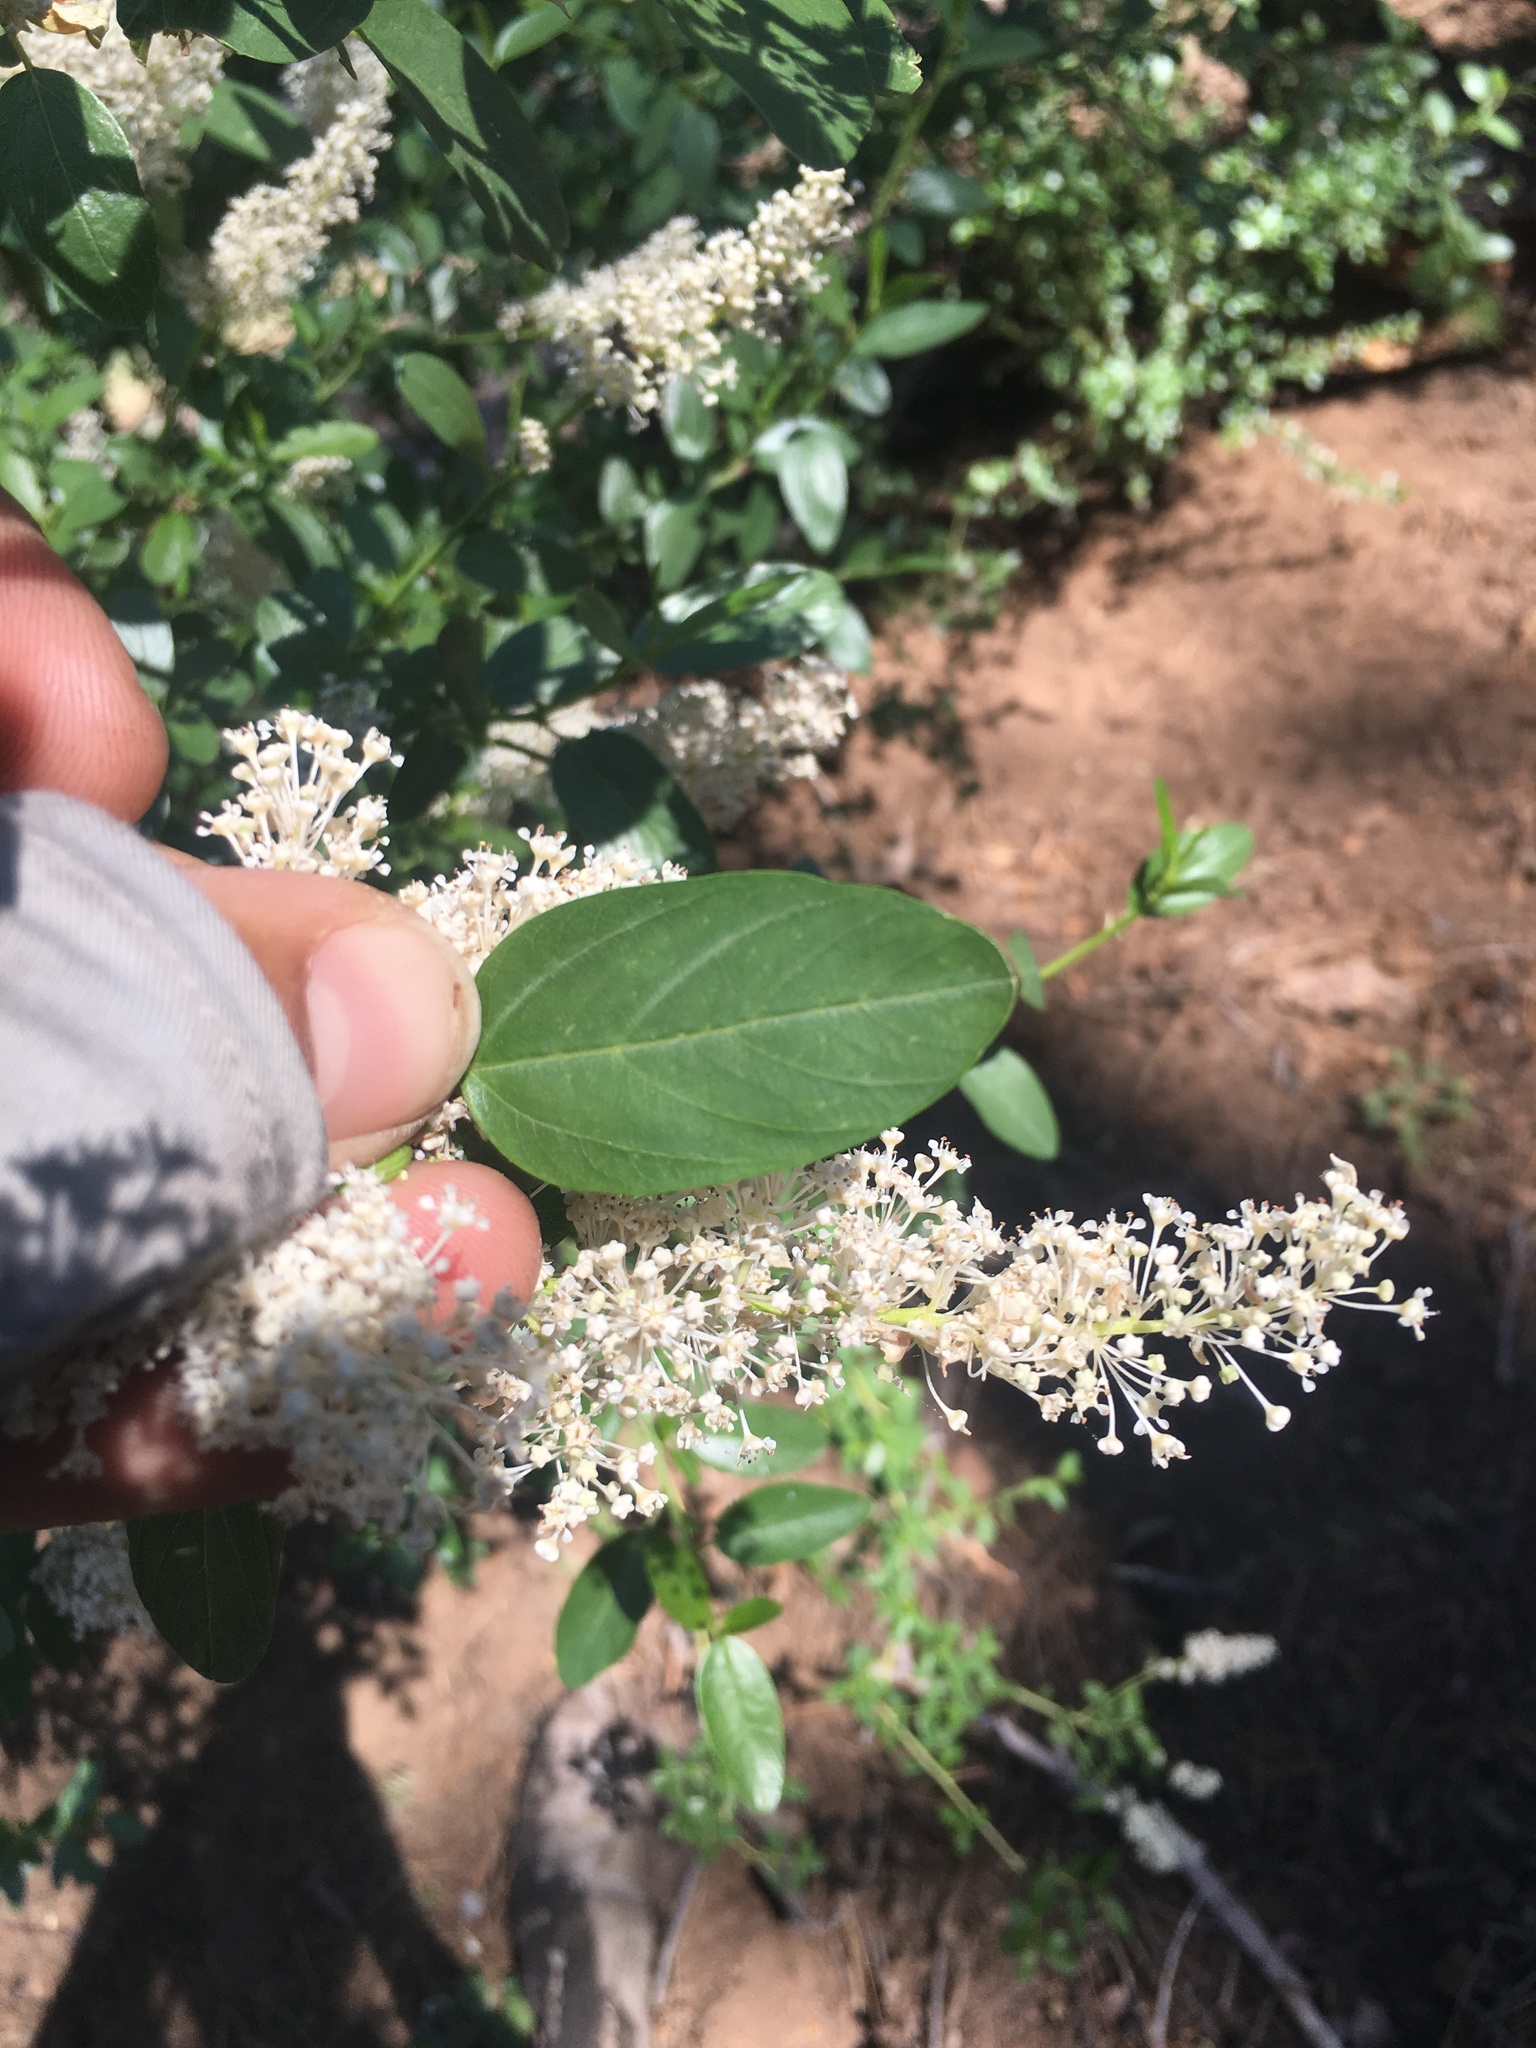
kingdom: Plantae
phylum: Tracheophyta
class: Magnoliopsida
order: Rosales
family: Rhamnaceae
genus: Ceanothus
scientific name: Ceanothus palmeri
